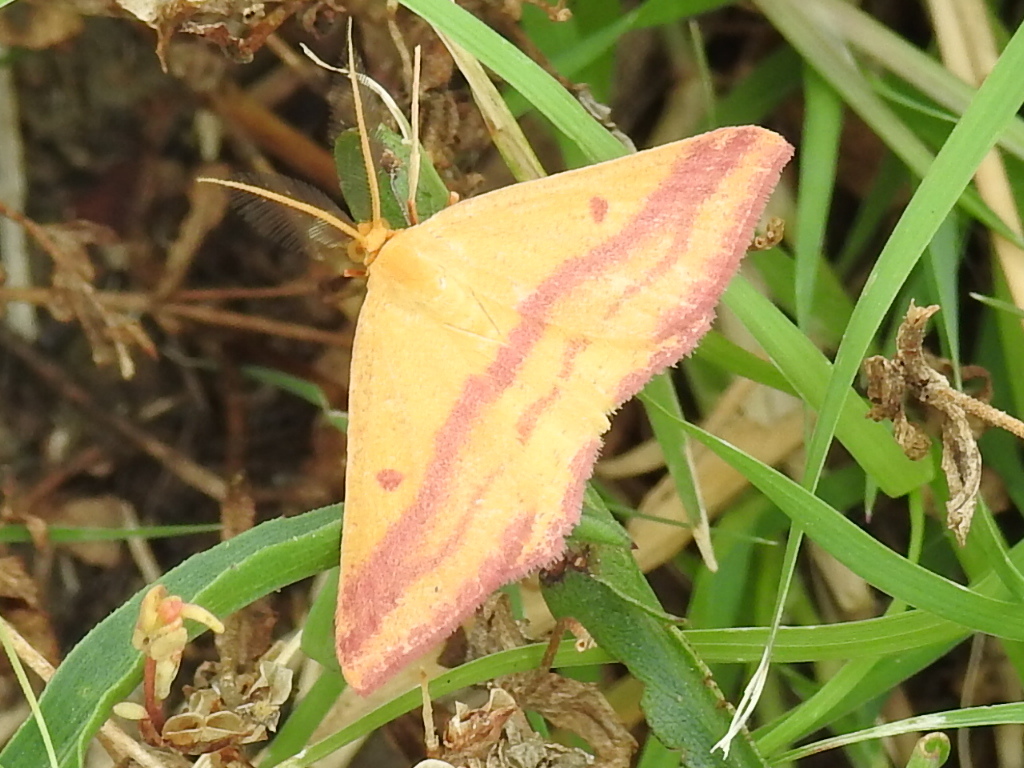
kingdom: Animalia
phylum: Arthropoda
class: Insecta
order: Lepidoptera
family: Geometridae
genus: Haematopis
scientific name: Haematopis grataria
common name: Chickweed geometer
